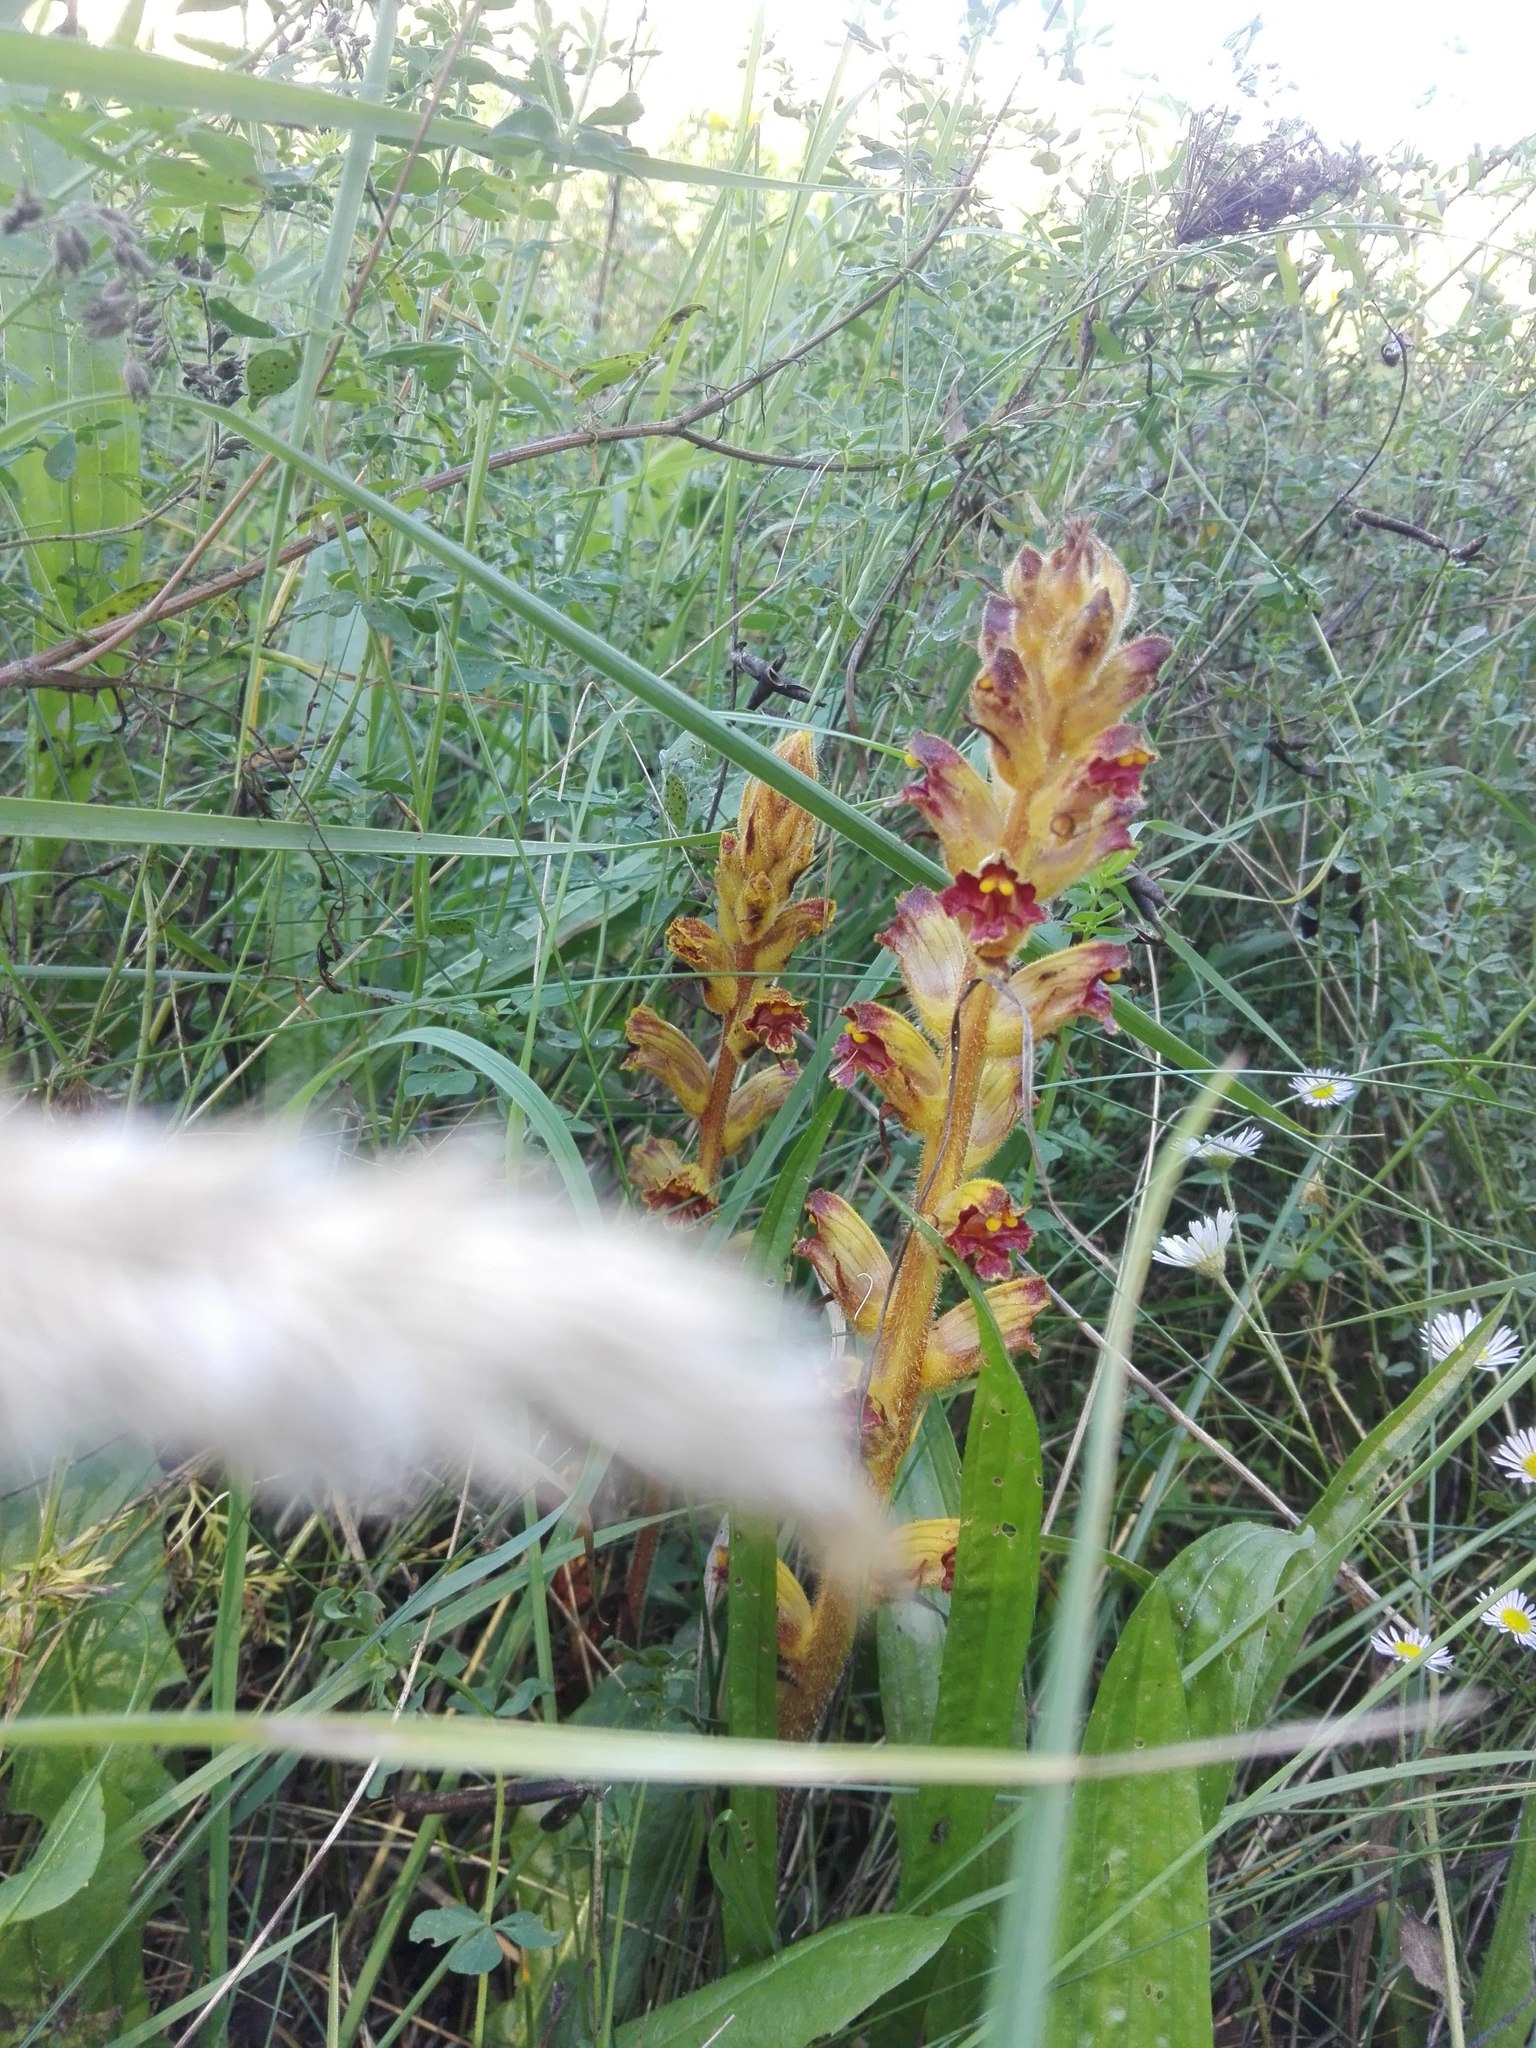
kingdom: Plantae
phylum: Tracheophyta
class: Magnoliopsida
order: Lamiales
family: Orobanchaceae
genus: Orobanche
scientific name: Orobanche gracilis
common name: Slender broomrape
